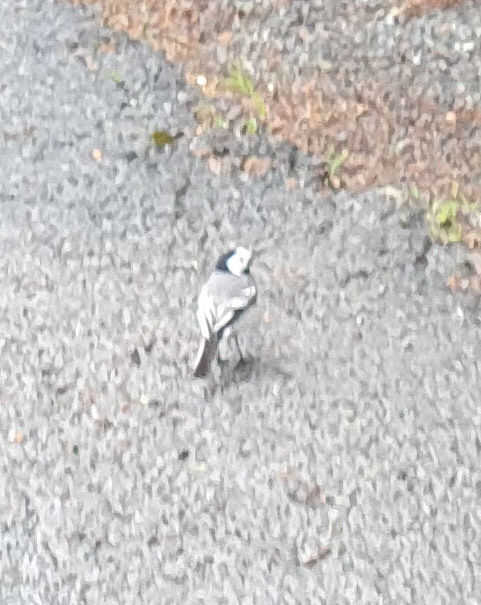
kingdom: Animalia
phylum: Chordata
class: Aves
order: Passeriformes
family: Motacillidae
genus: Motacilla
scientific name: Motacilla alba
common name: White wagtail
